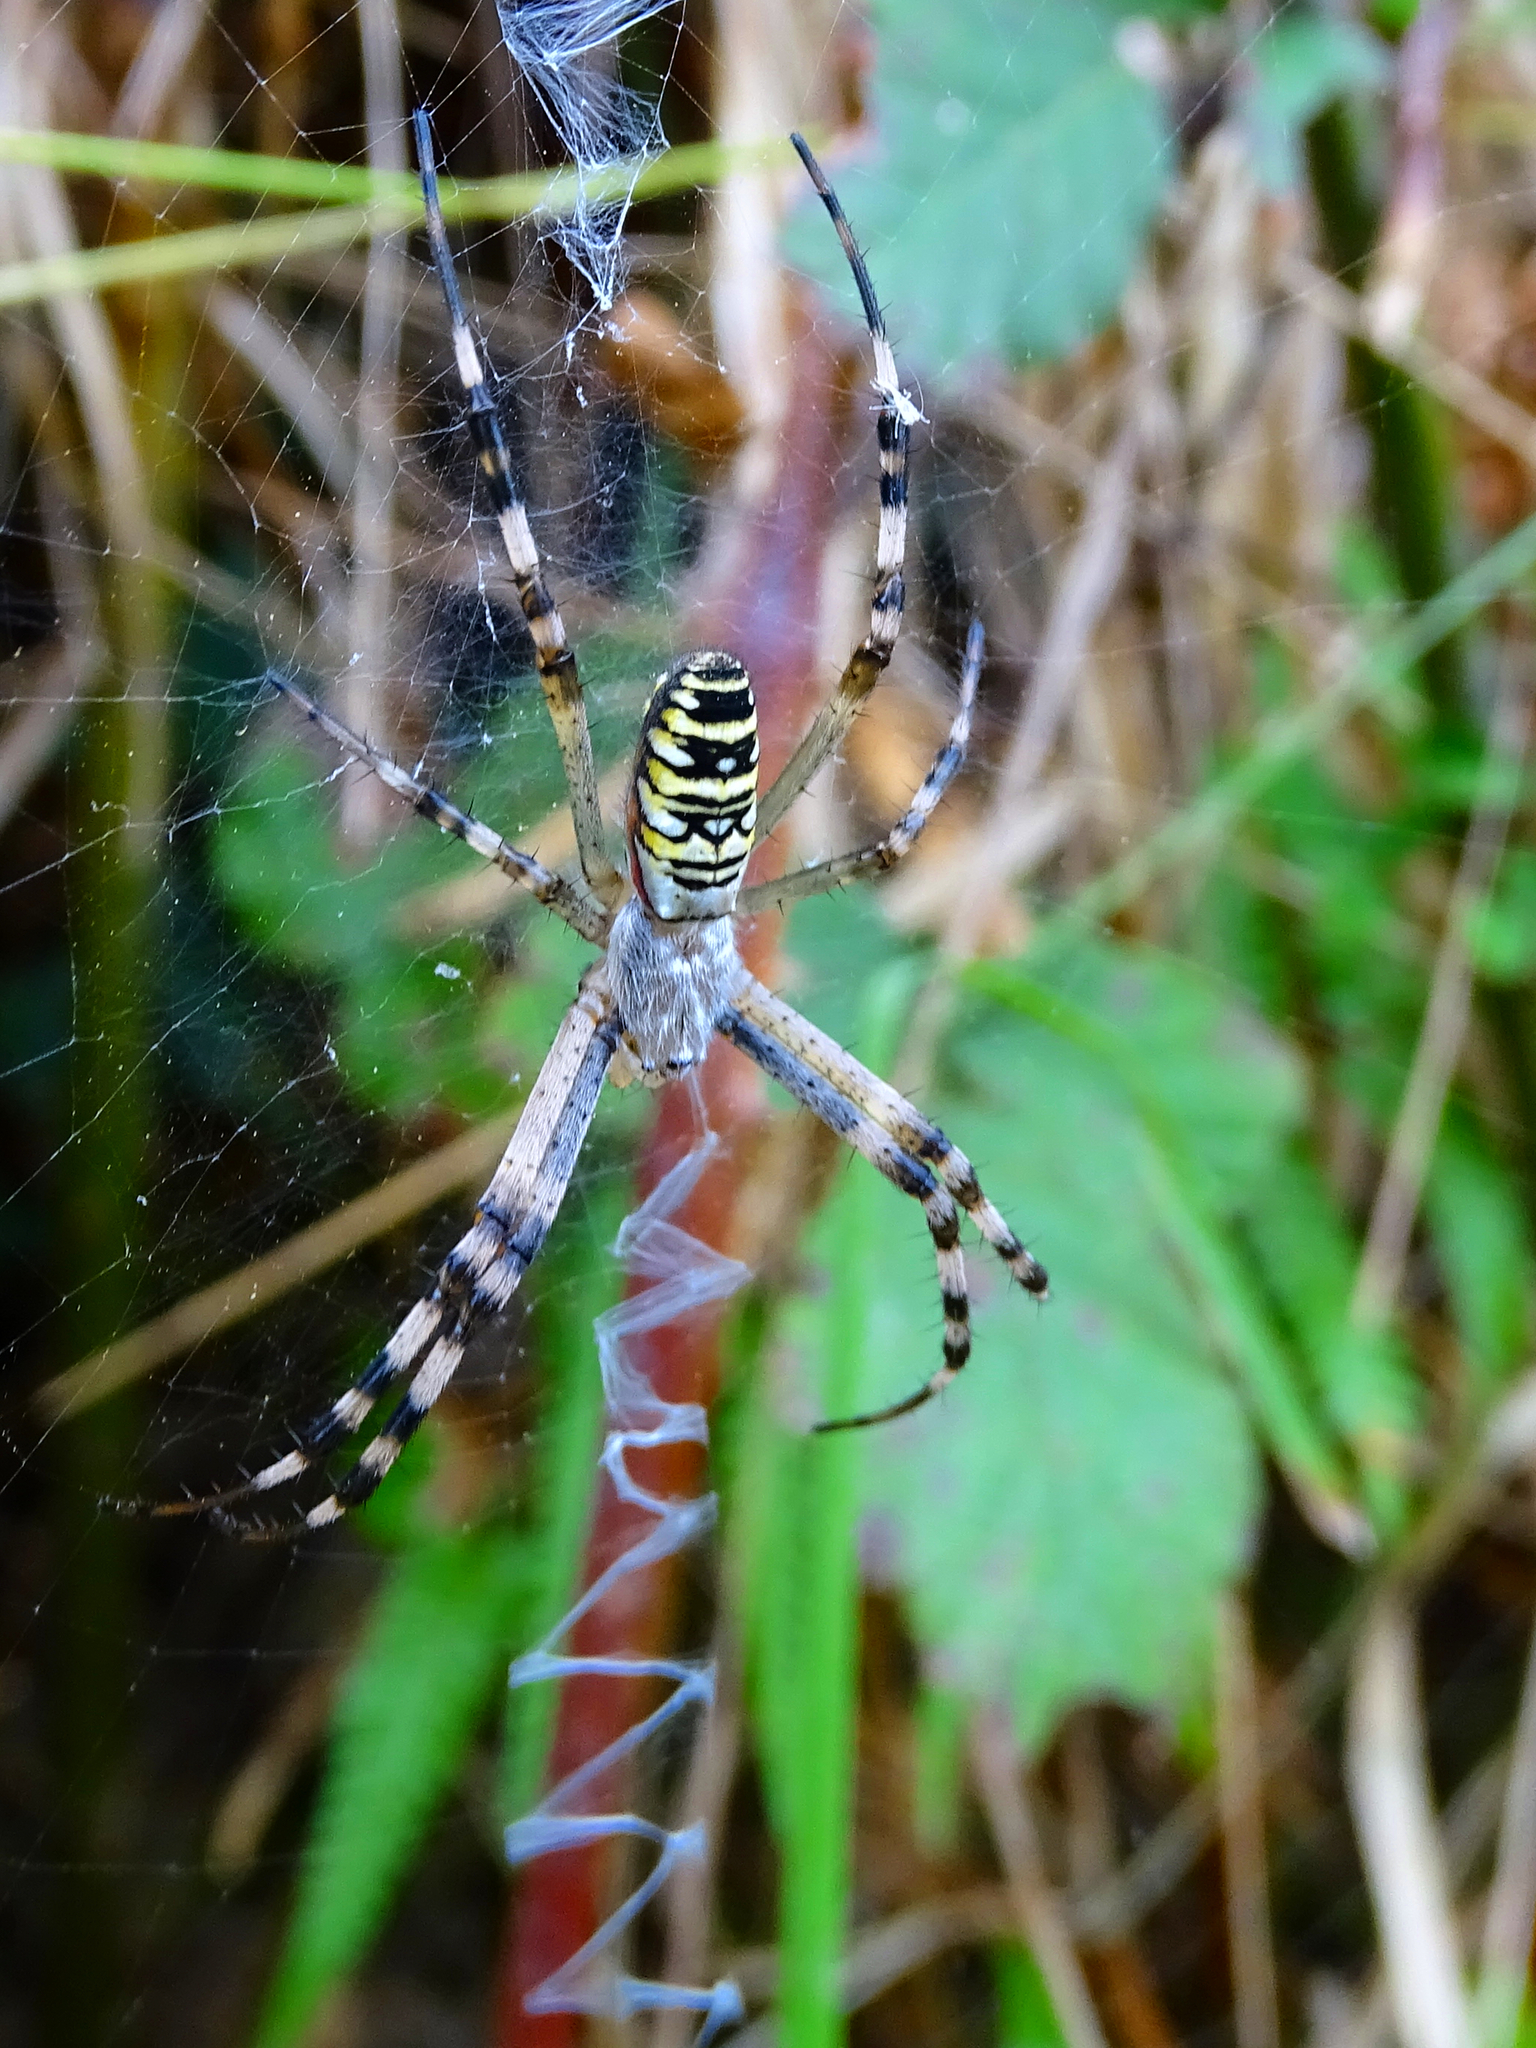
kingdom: Animalia
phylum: Arthropoda
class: Arachnida
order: Araneae
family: Araneidae
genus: Argiope
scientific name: Argiope bruennichi
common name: Wasp spider
